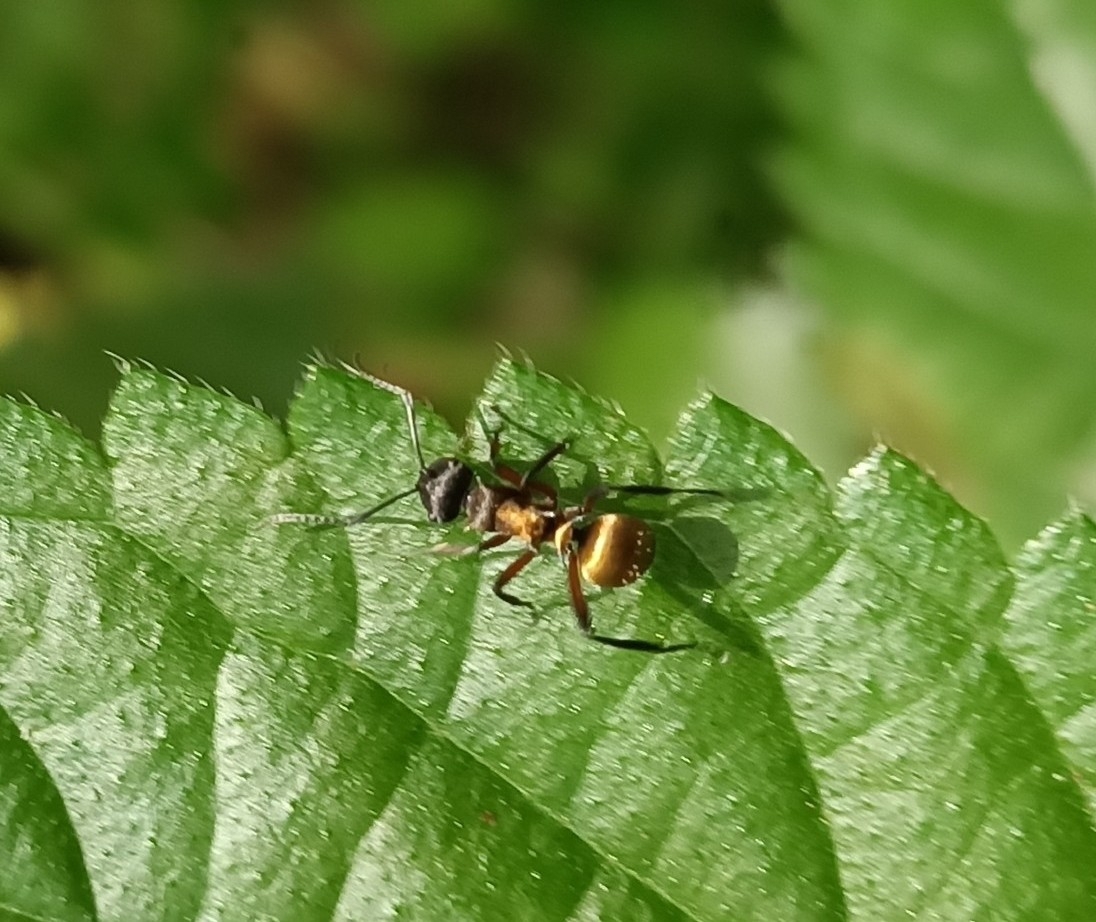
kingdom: Animalia
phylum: Arthropoda
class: Insecta
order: Hymenoptera
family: Formicidae
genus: Polyrhachis
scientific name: Polyrhachis rufifemur
